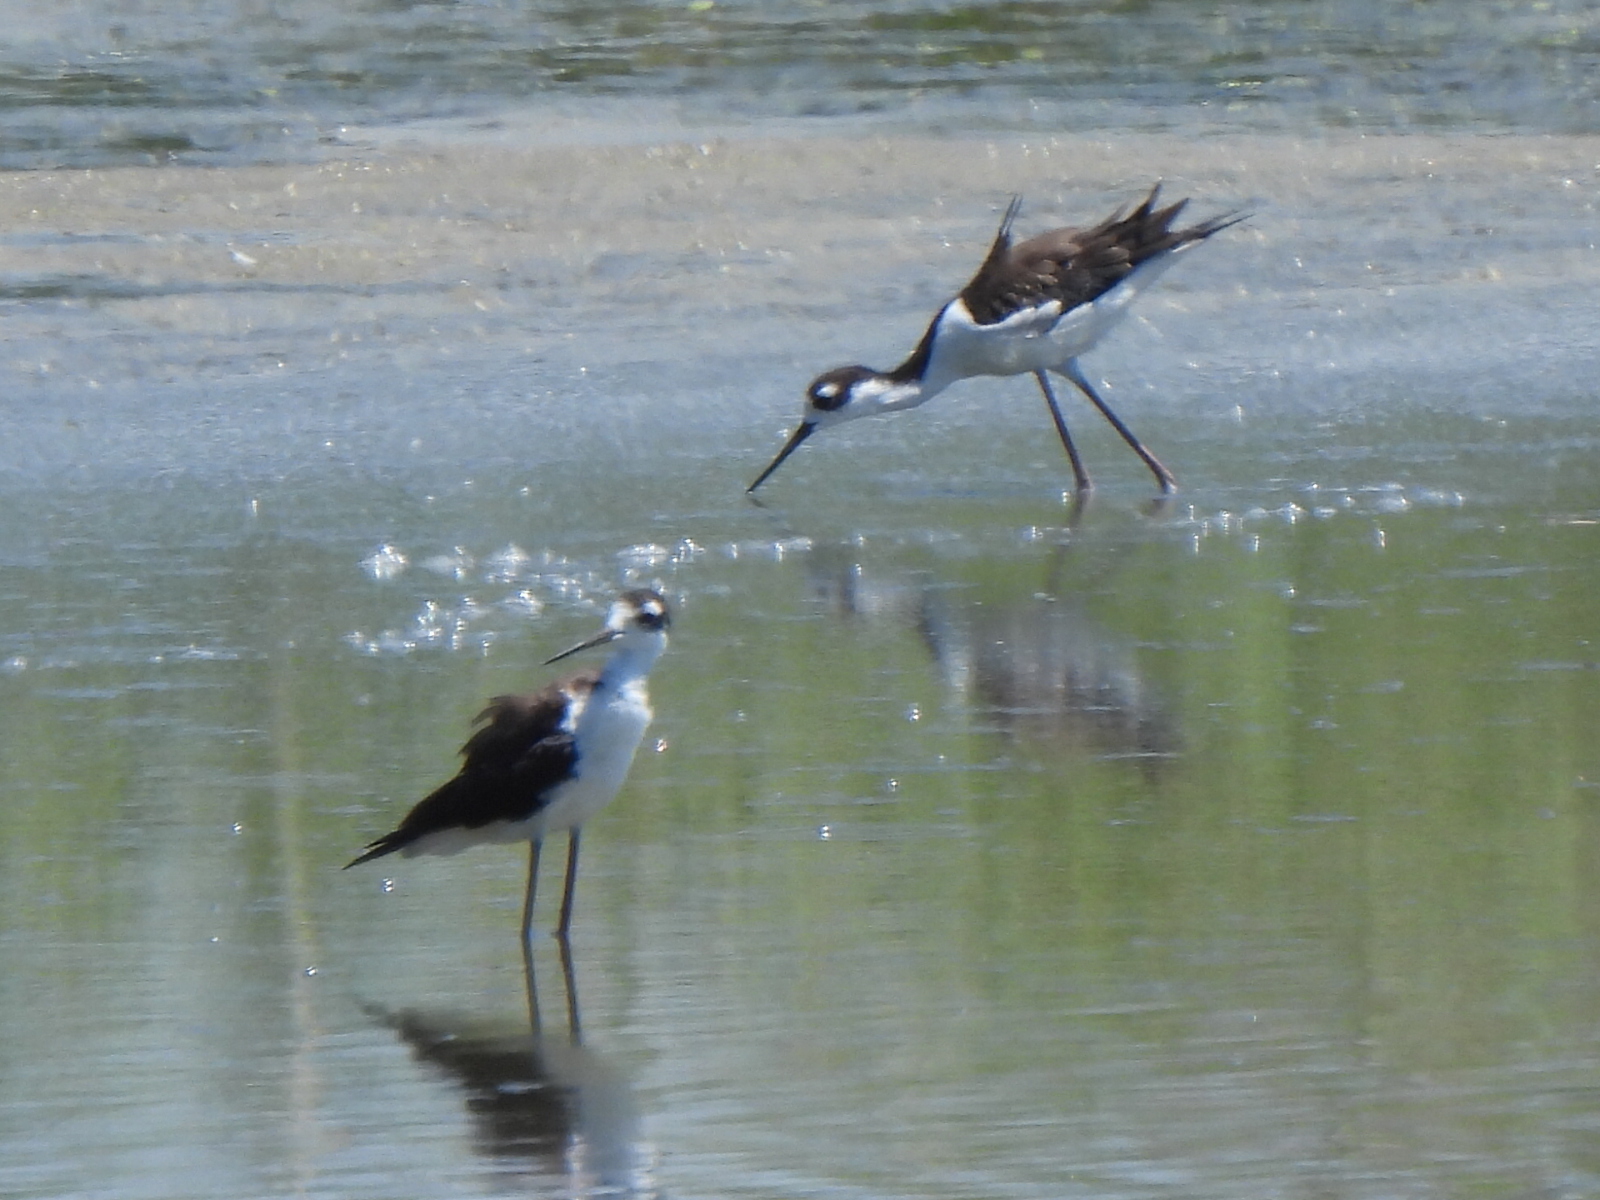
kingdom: Animalia
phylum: Chordata
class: Aves
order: Charadriiformes
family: Recurvirostridae
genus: Himantopus
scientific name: Himantopus mexicanus
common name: Black-necked stilt
